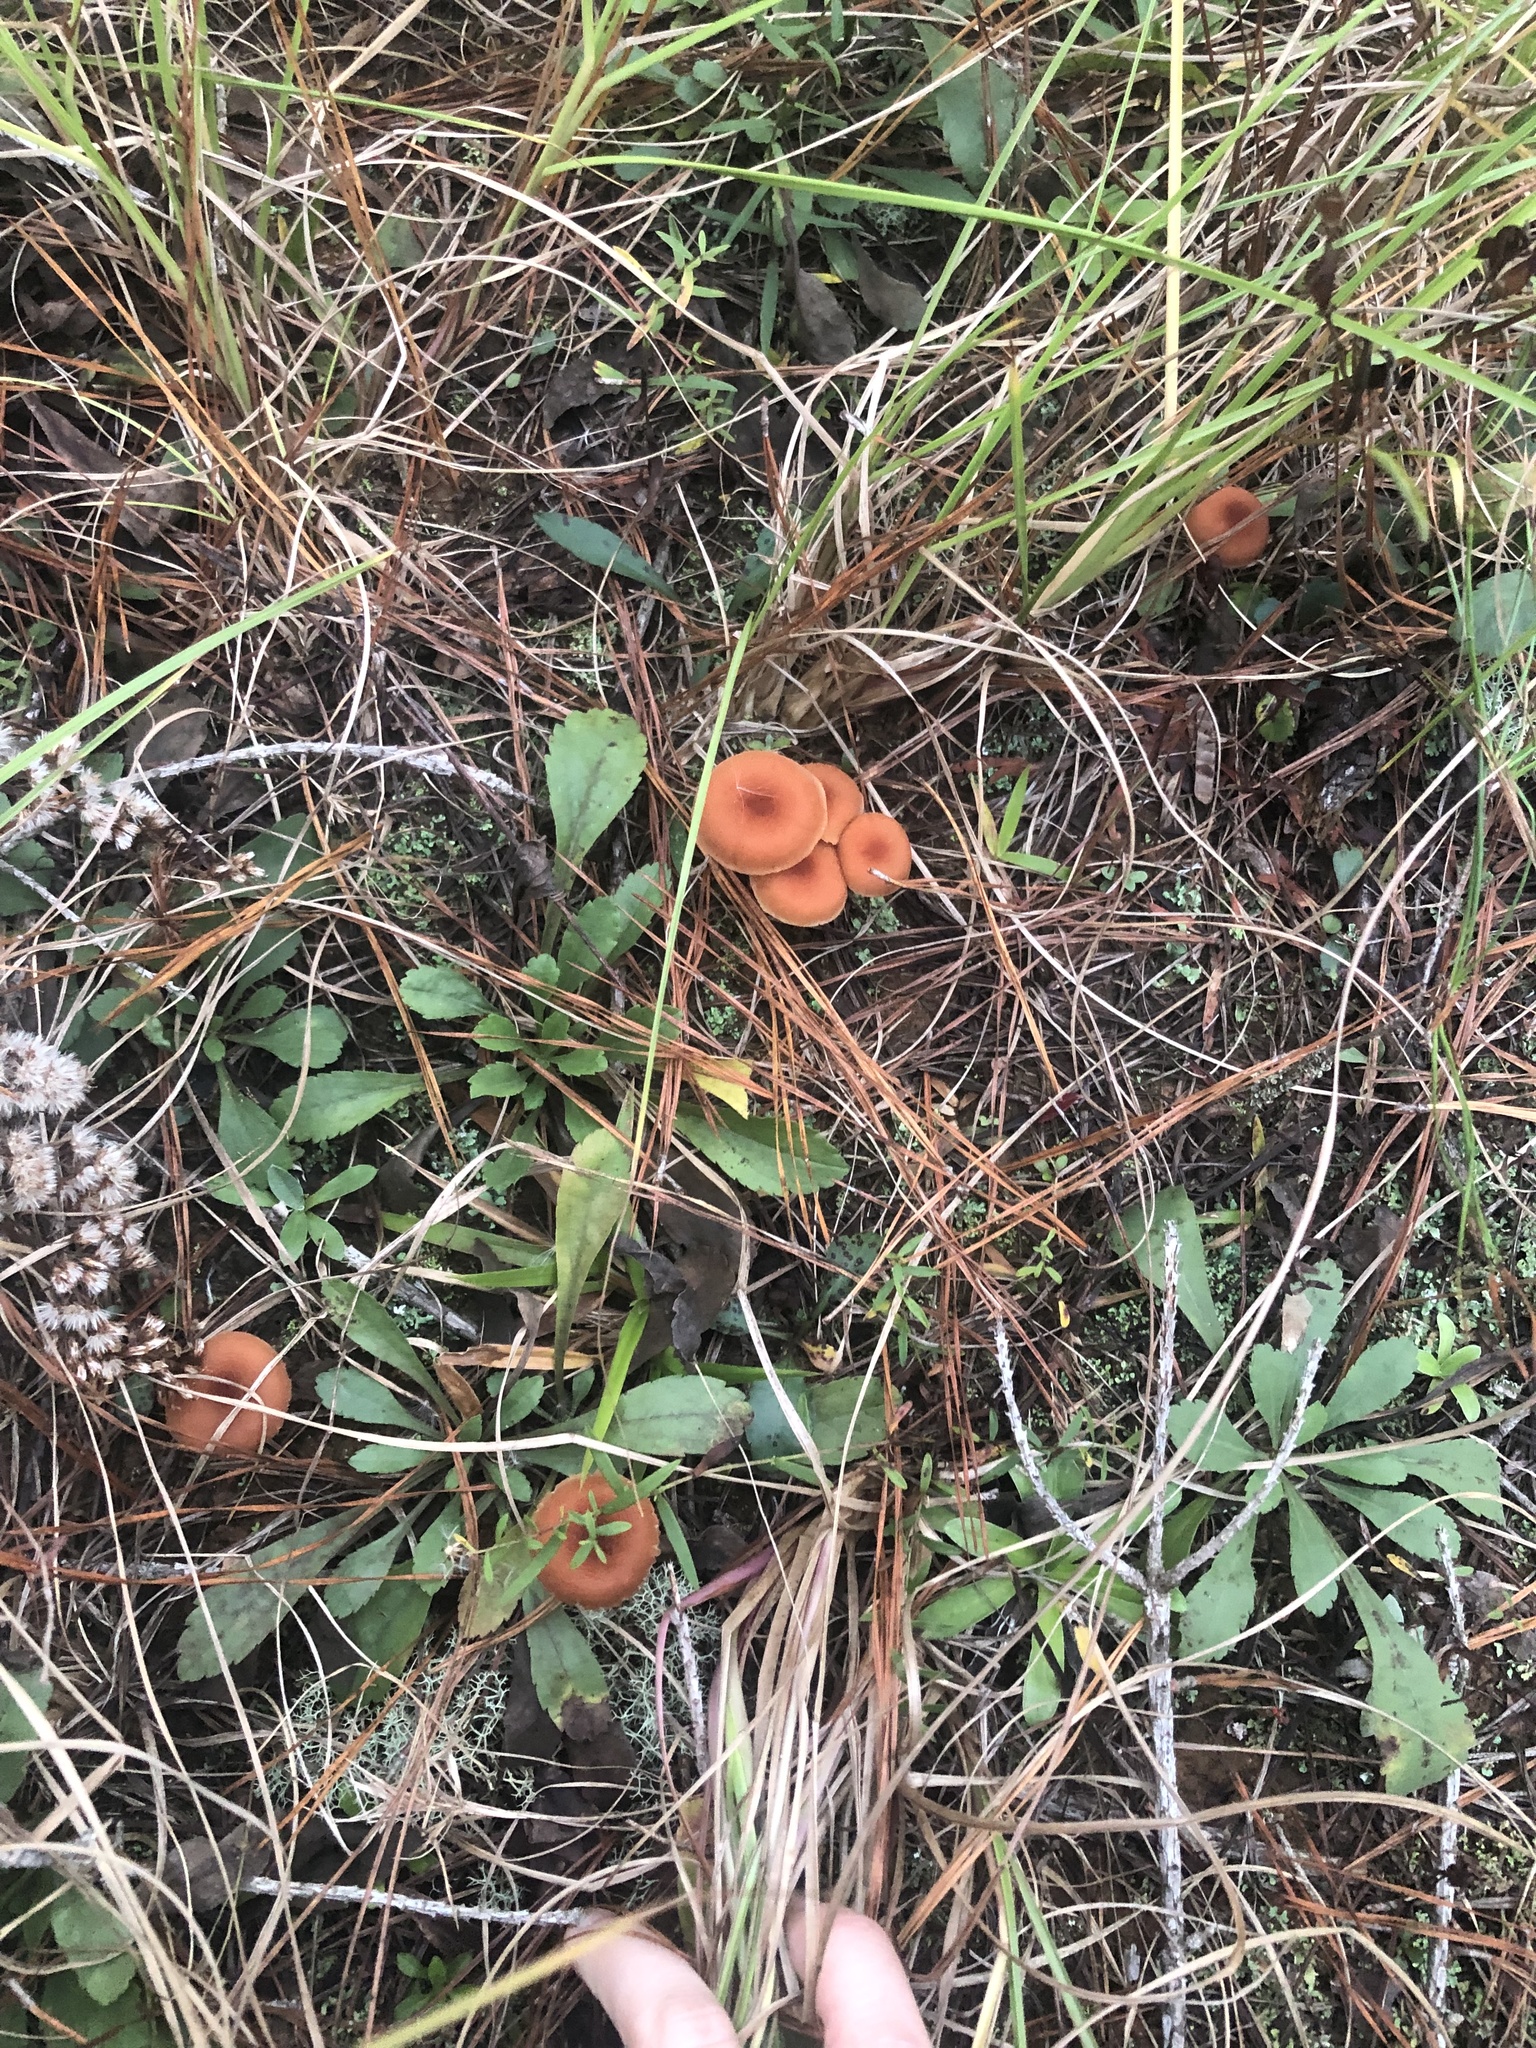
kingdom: Fungi
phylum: Basidiomycota
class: Agaricomycetes
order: Agaricales
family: Hydnangiaceae
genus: Laccaria
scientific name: Laccaria laccata
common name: Deceiver
